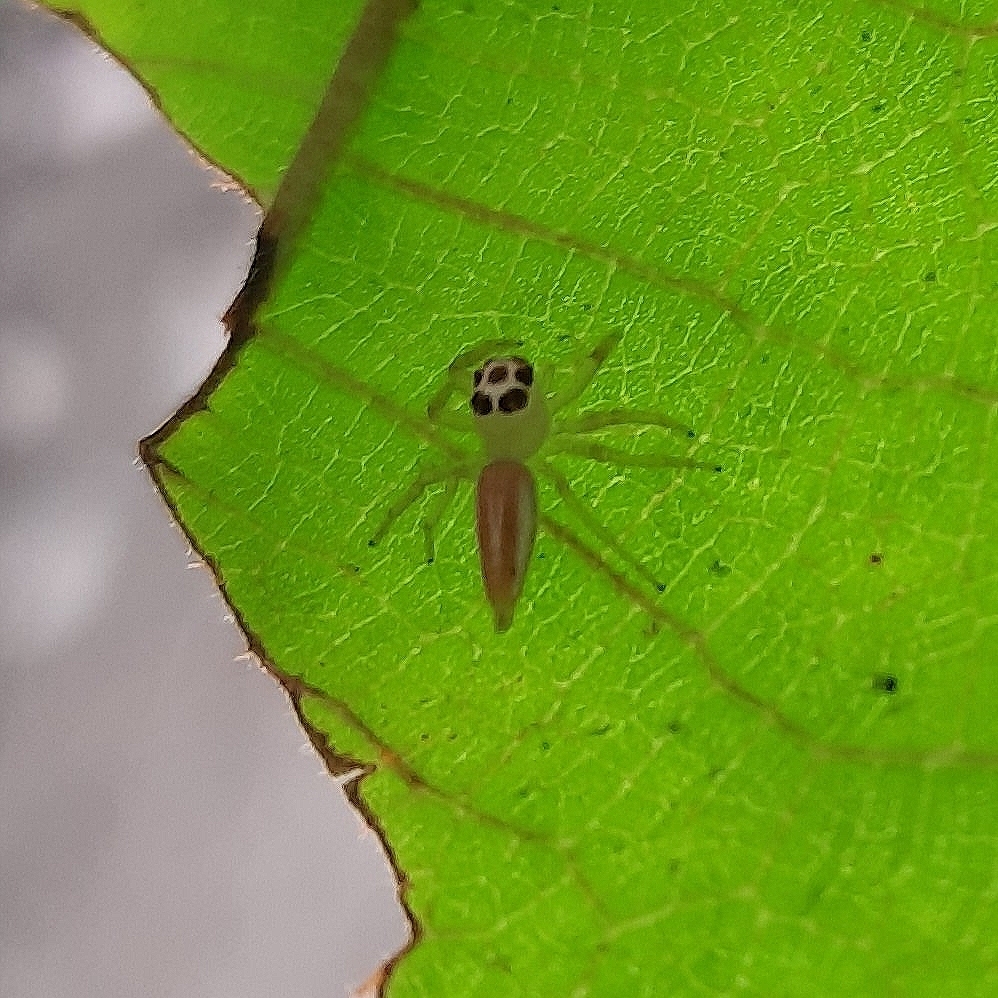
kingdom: Animalia
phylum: Arthropoda
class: Arachnida
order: Araneae
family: Salticidae
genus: Telamonia
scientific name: Telamonia dimidiata
